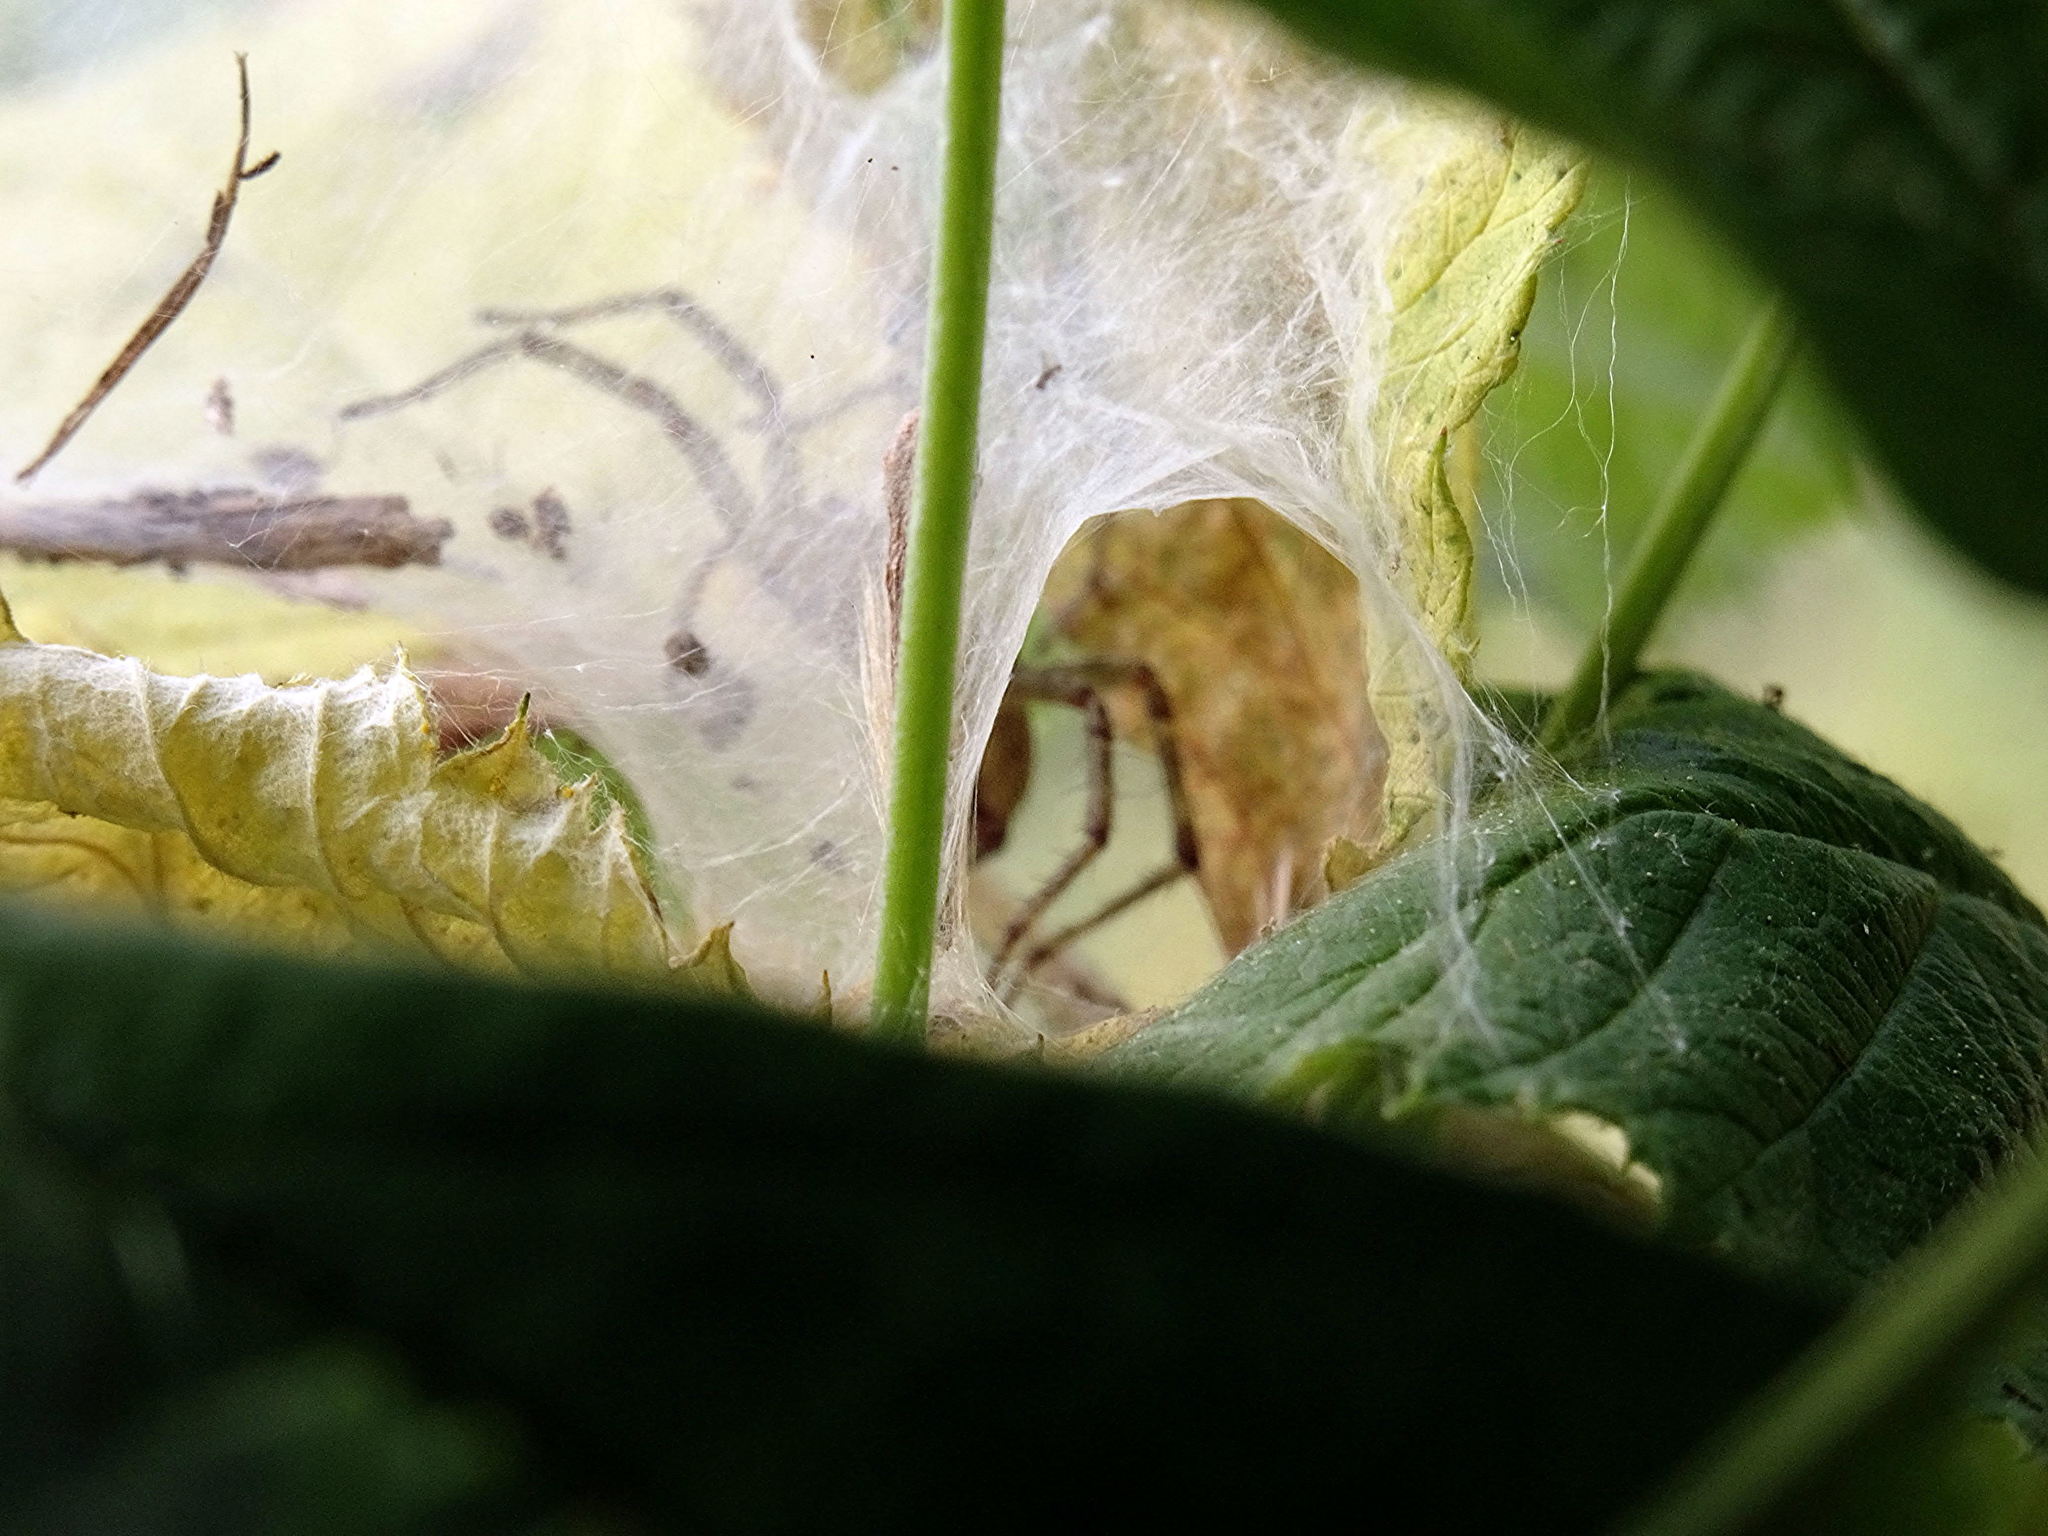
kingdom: Animalia
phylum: Arthropoda
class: Arachnida
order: Araneae
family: Agelenidae
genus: Agelena
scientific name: Agelena labyrinthica
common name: Labyrinth spider
